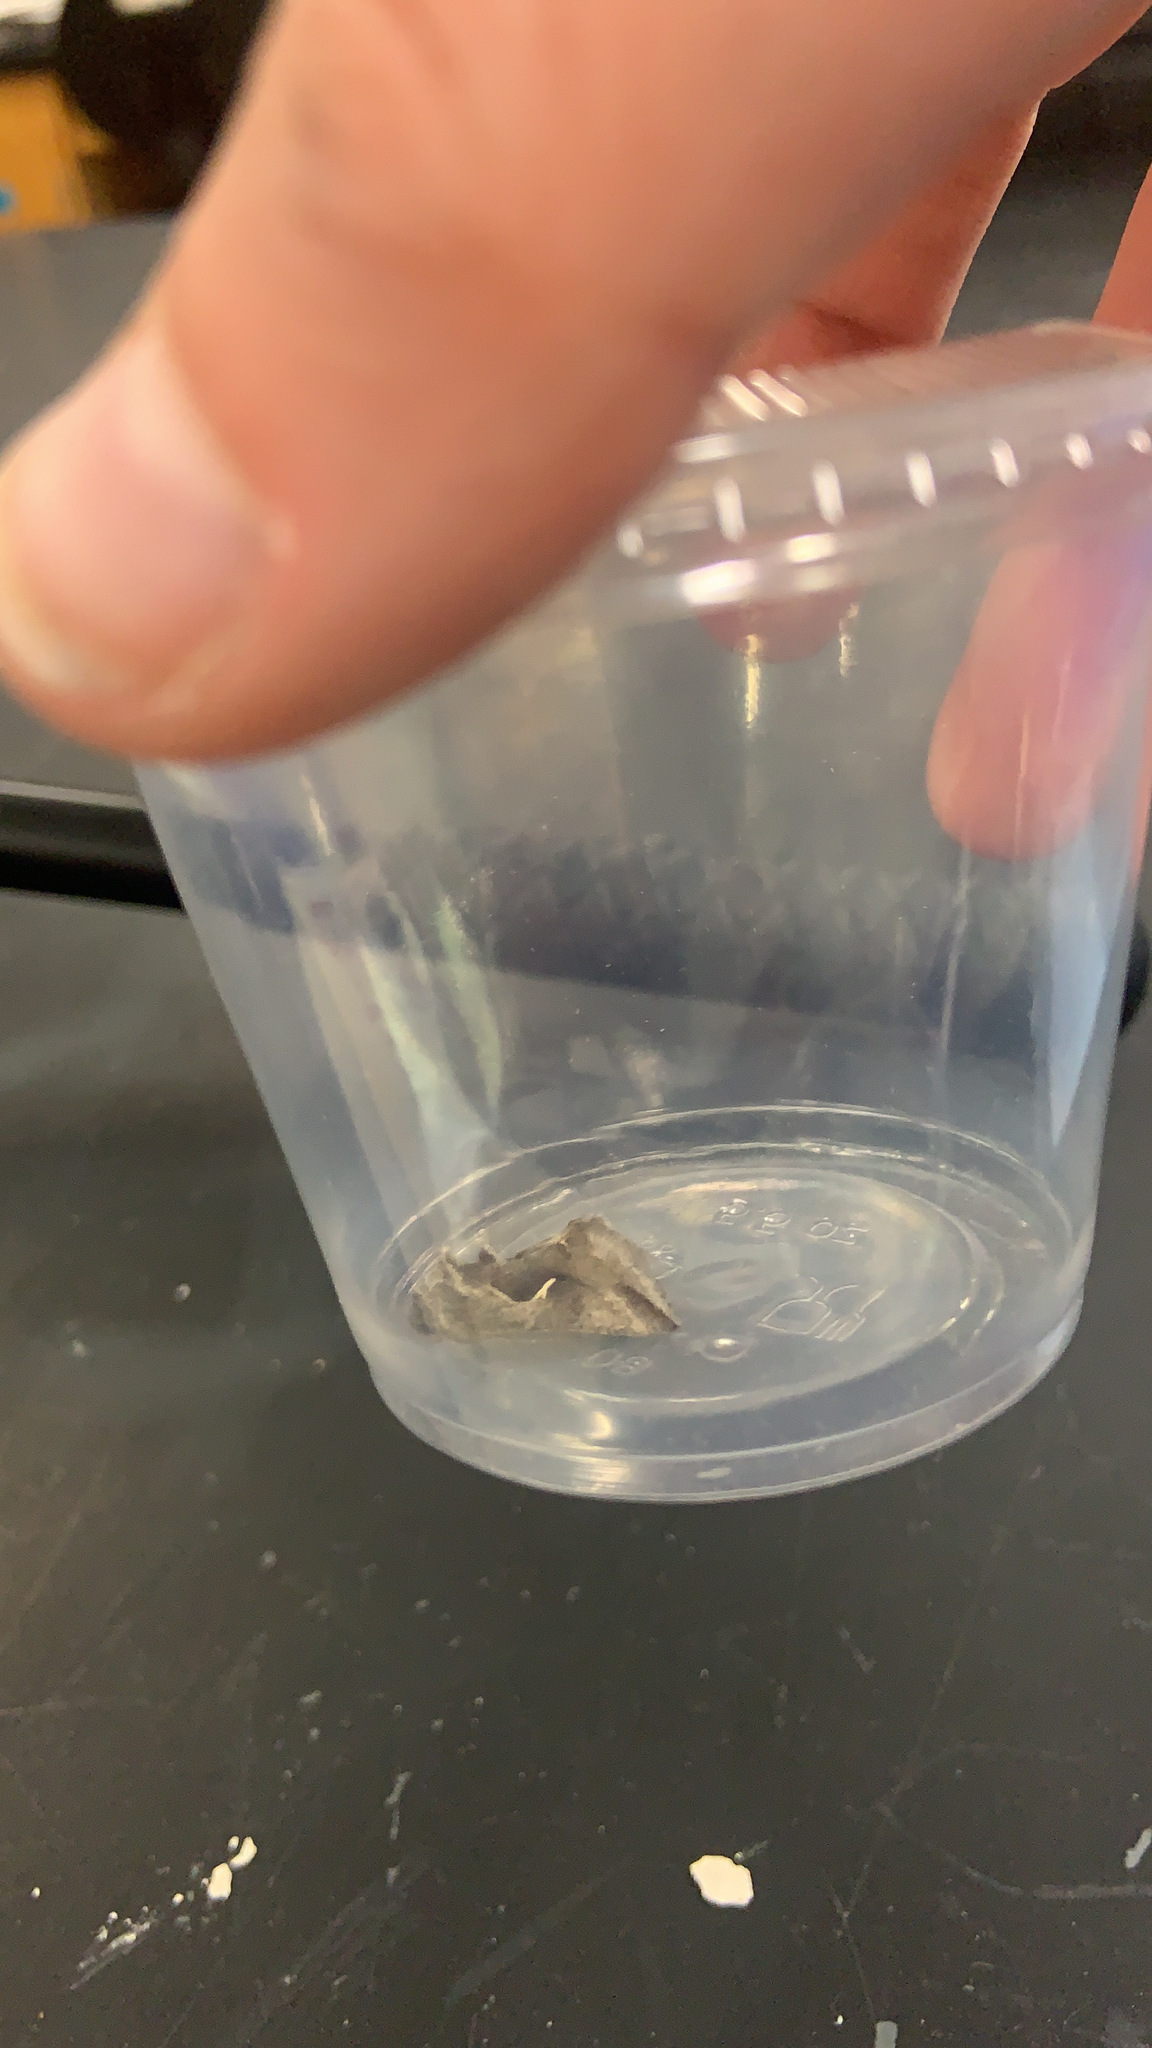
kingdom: Animalia
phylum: Arthropoda
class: Insecta
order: Lepidoptera
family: Noctuidae
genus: Anagrapha
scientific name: Anagrapha falcifera
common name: Celery looper
